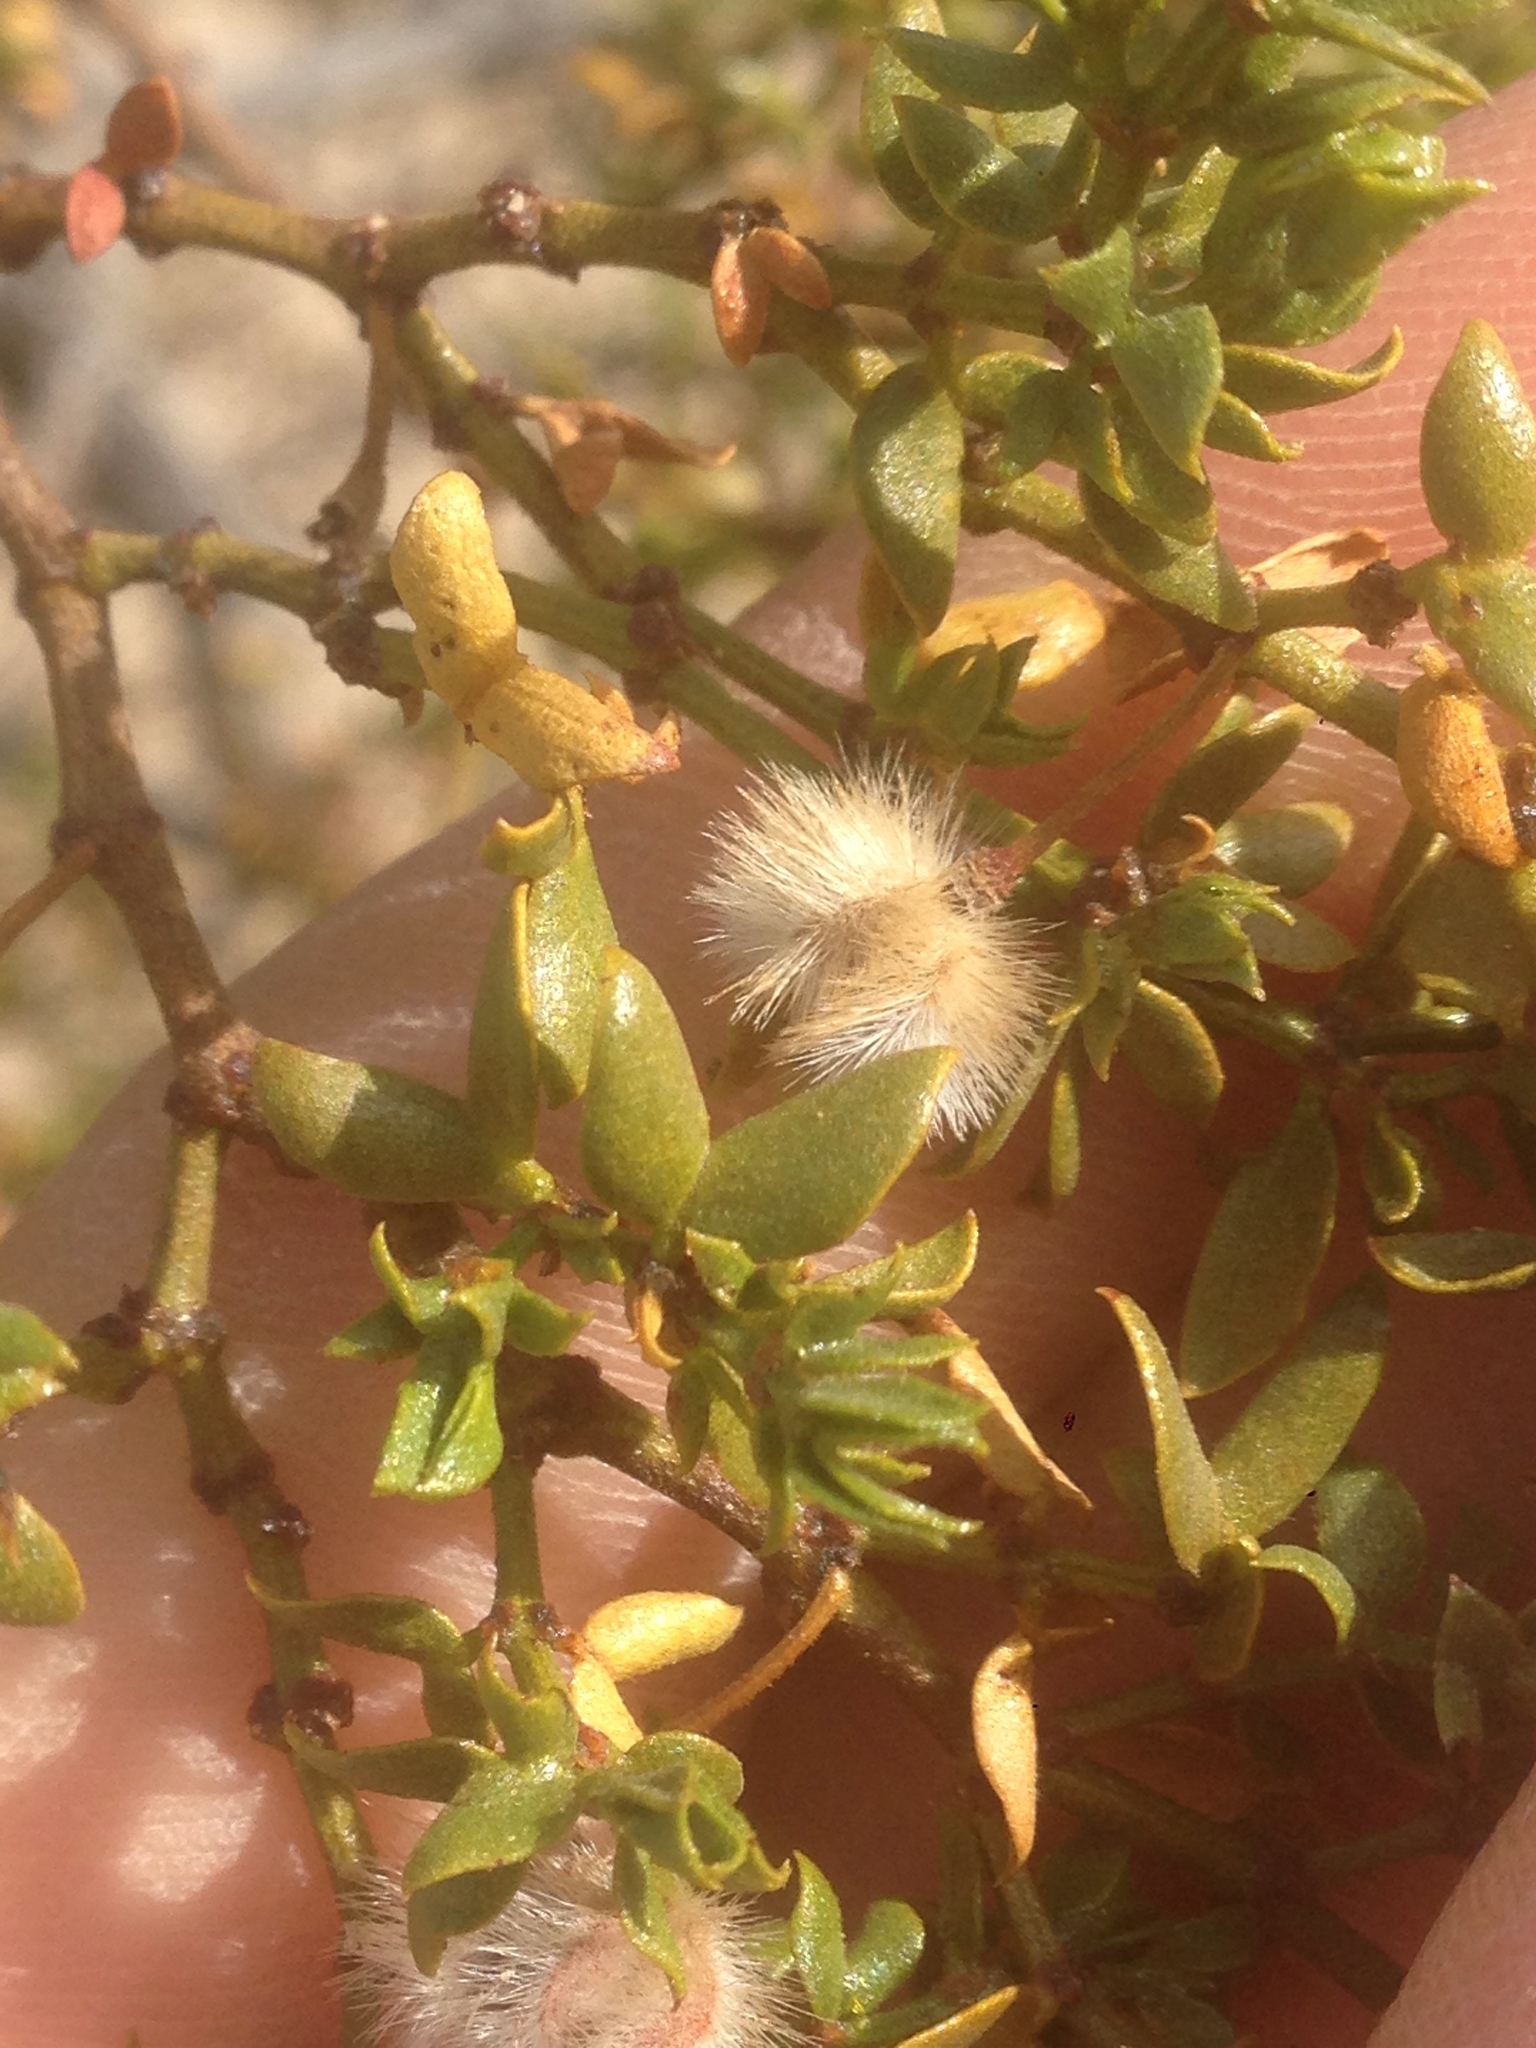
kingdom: Plantae
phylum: Tracheophyta
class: Magnoliopsida
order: Zygophyllales
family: Zygophyllaceae
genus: Larrea
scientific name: Larrea tridentata
